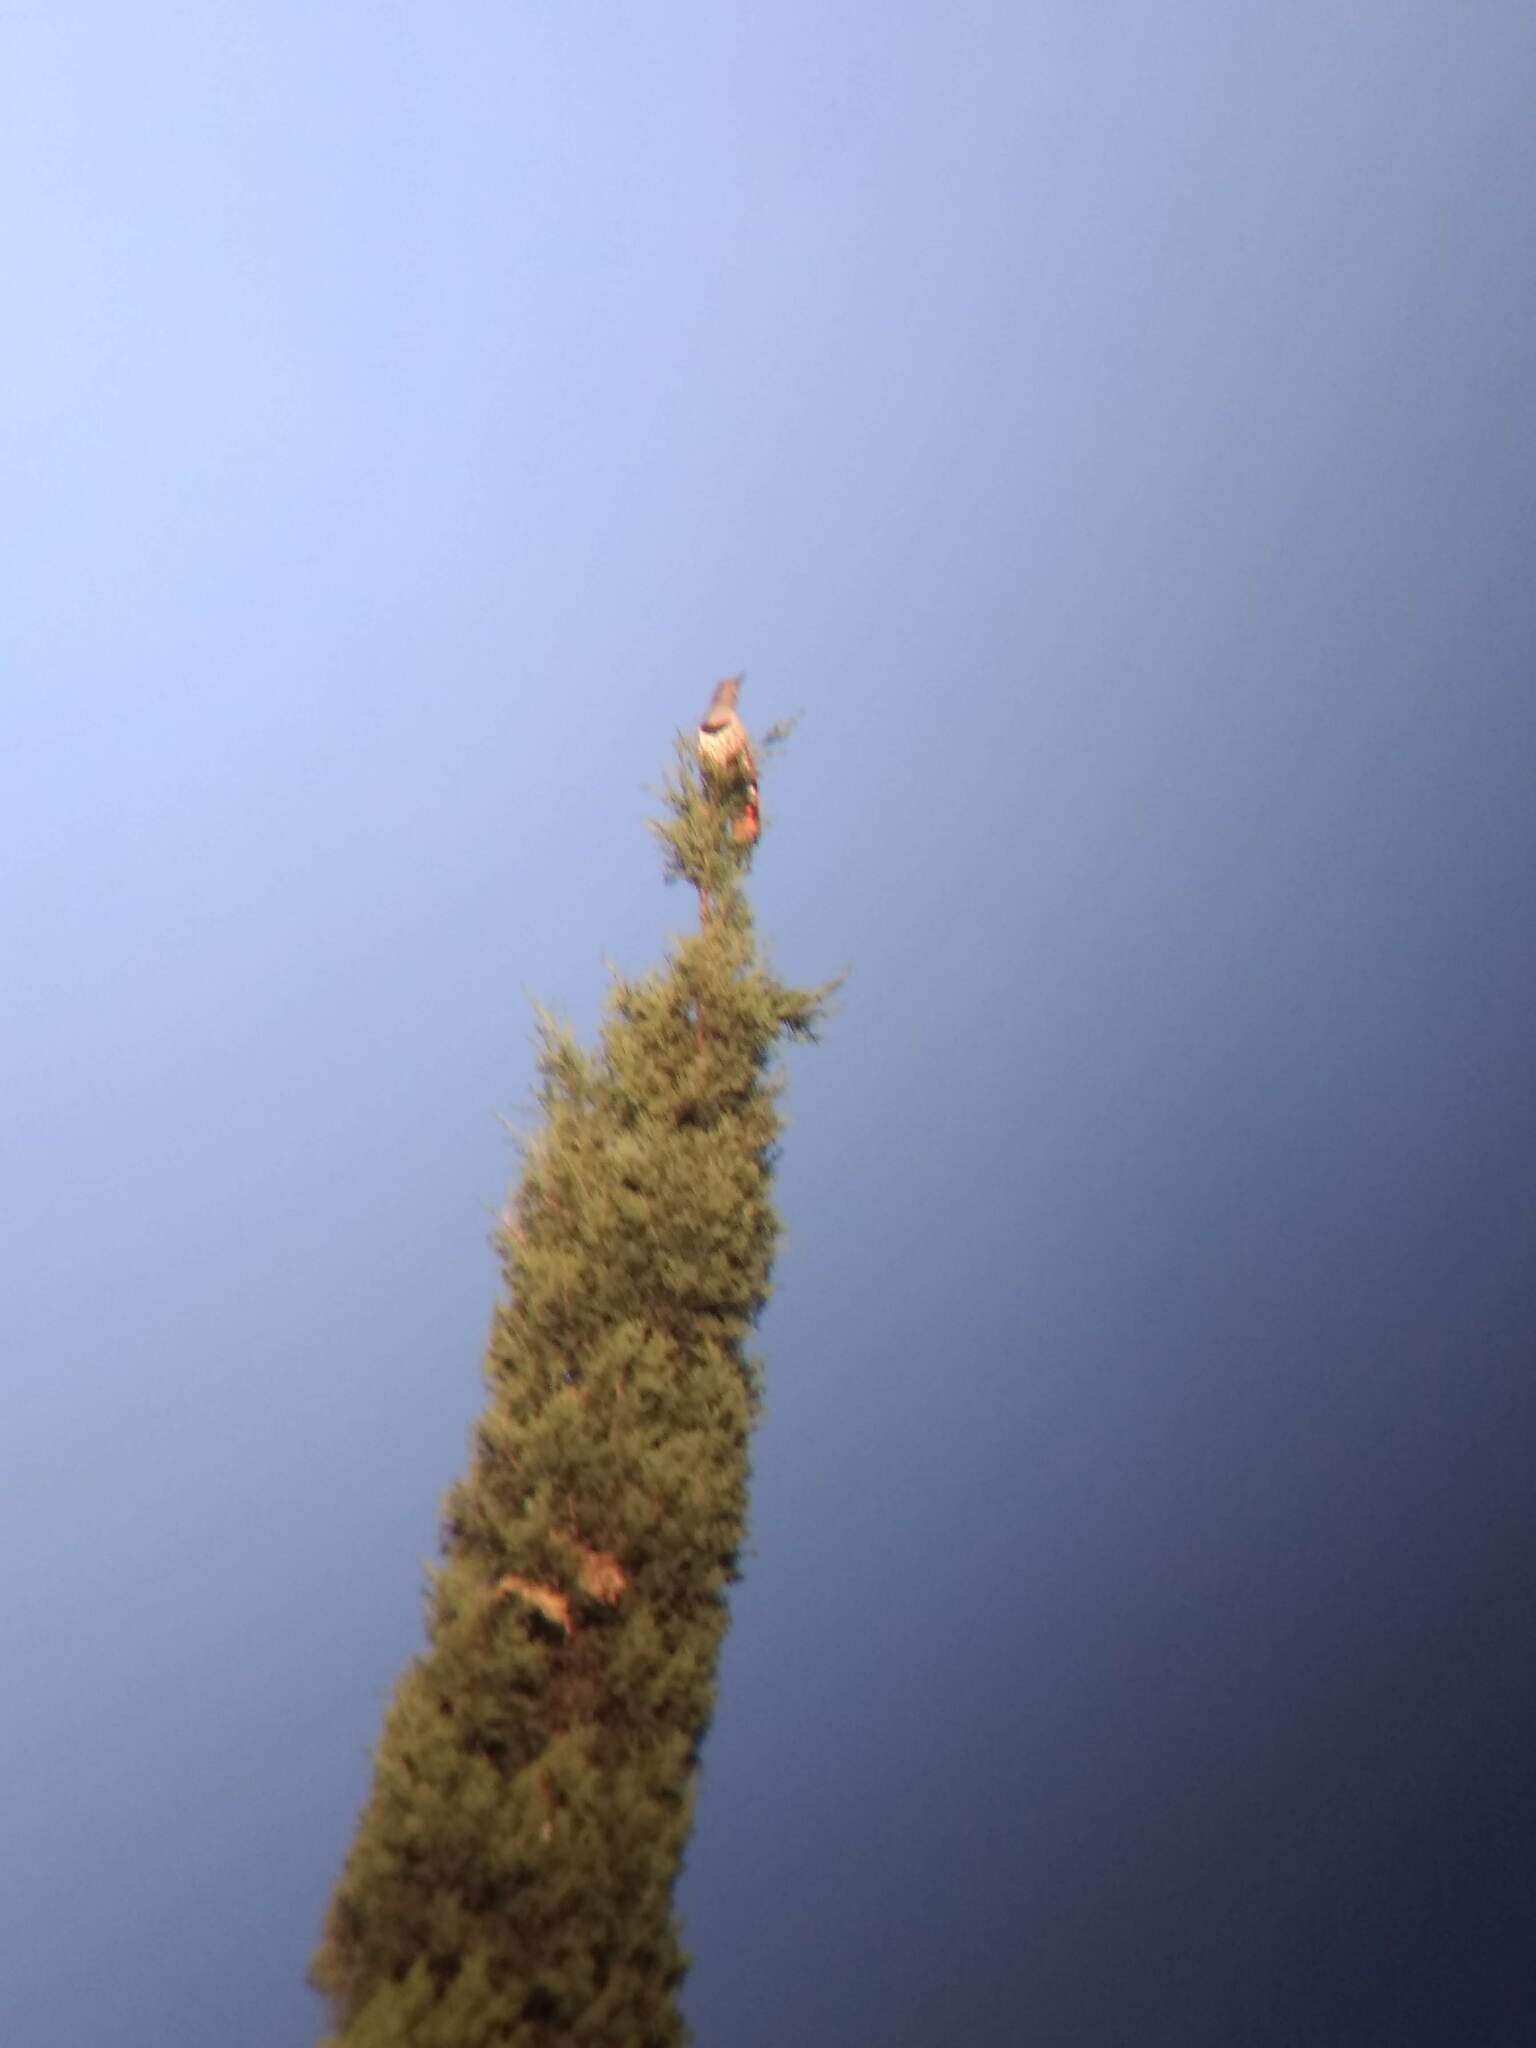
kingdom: Animalia
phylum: Chordata
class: Aves
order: Piciformes
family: Picidae
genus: Colaptes
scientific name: Colaptes auratus
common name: Northern flicker
